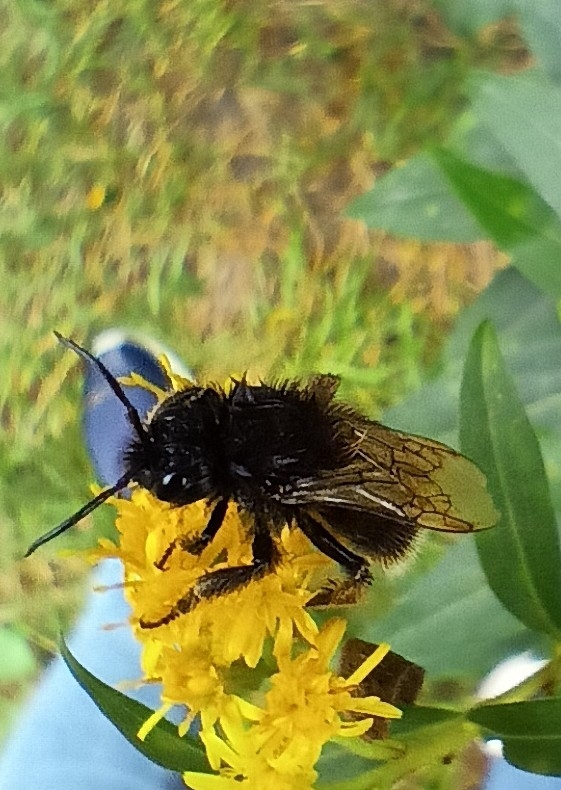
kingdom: Animalia
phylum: Arthropoda
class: Insecta
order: Hymenoptera
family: Apidae
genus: Bombus
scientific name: Bombus rupestris
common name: Hill cuckoo-bee
